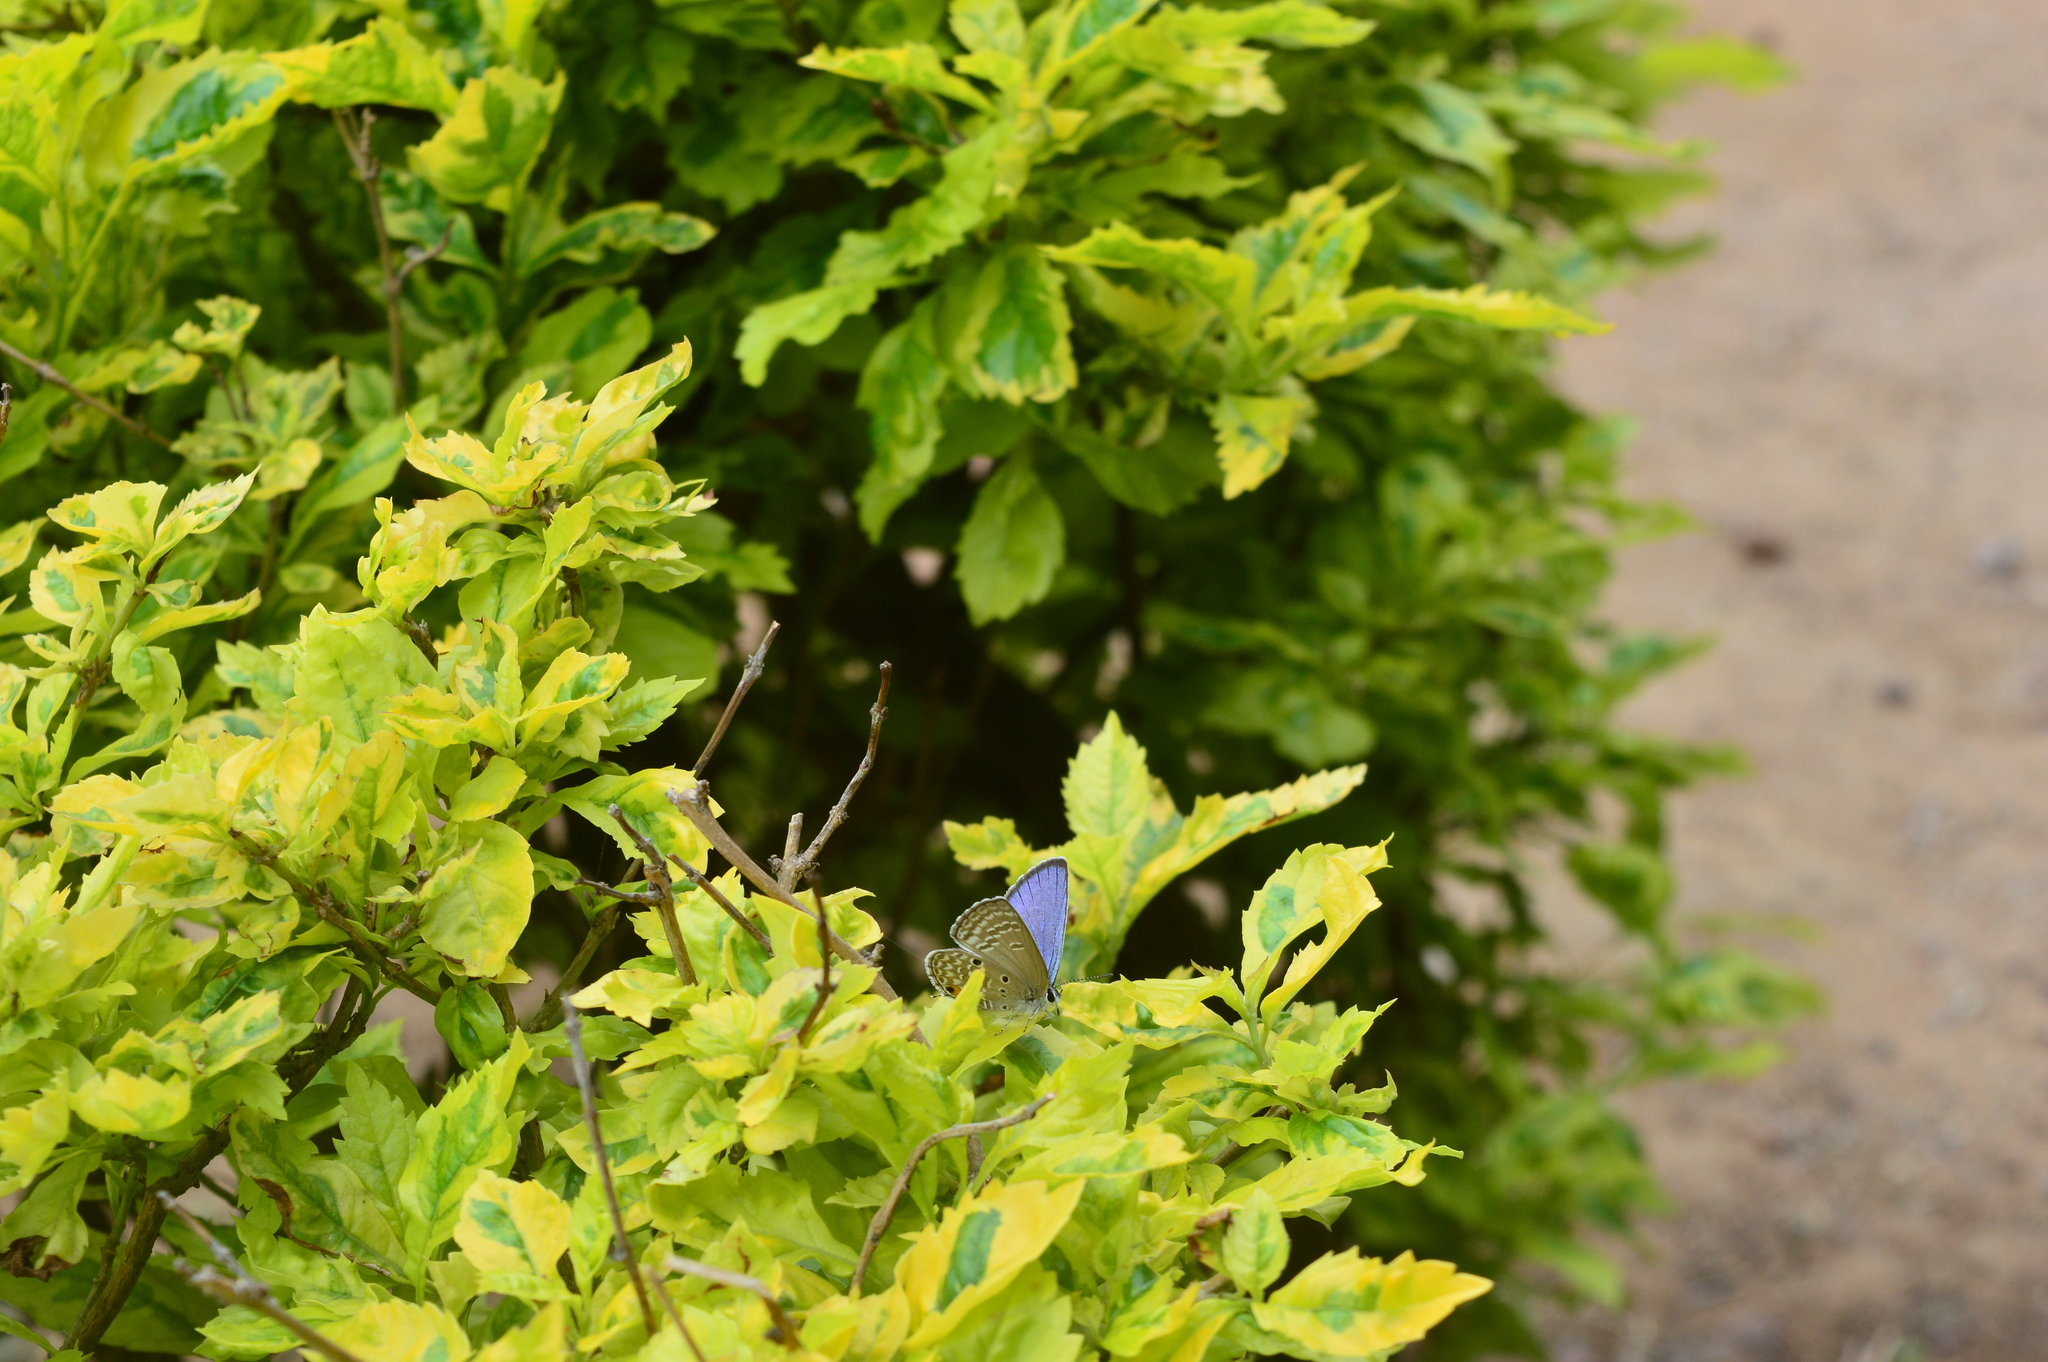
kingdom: Animalia
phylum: Arthropoda
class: Insecta
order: Lepidoptera
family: Lycaenidae
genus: Luthrodes
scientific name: Luthrodes pandava
